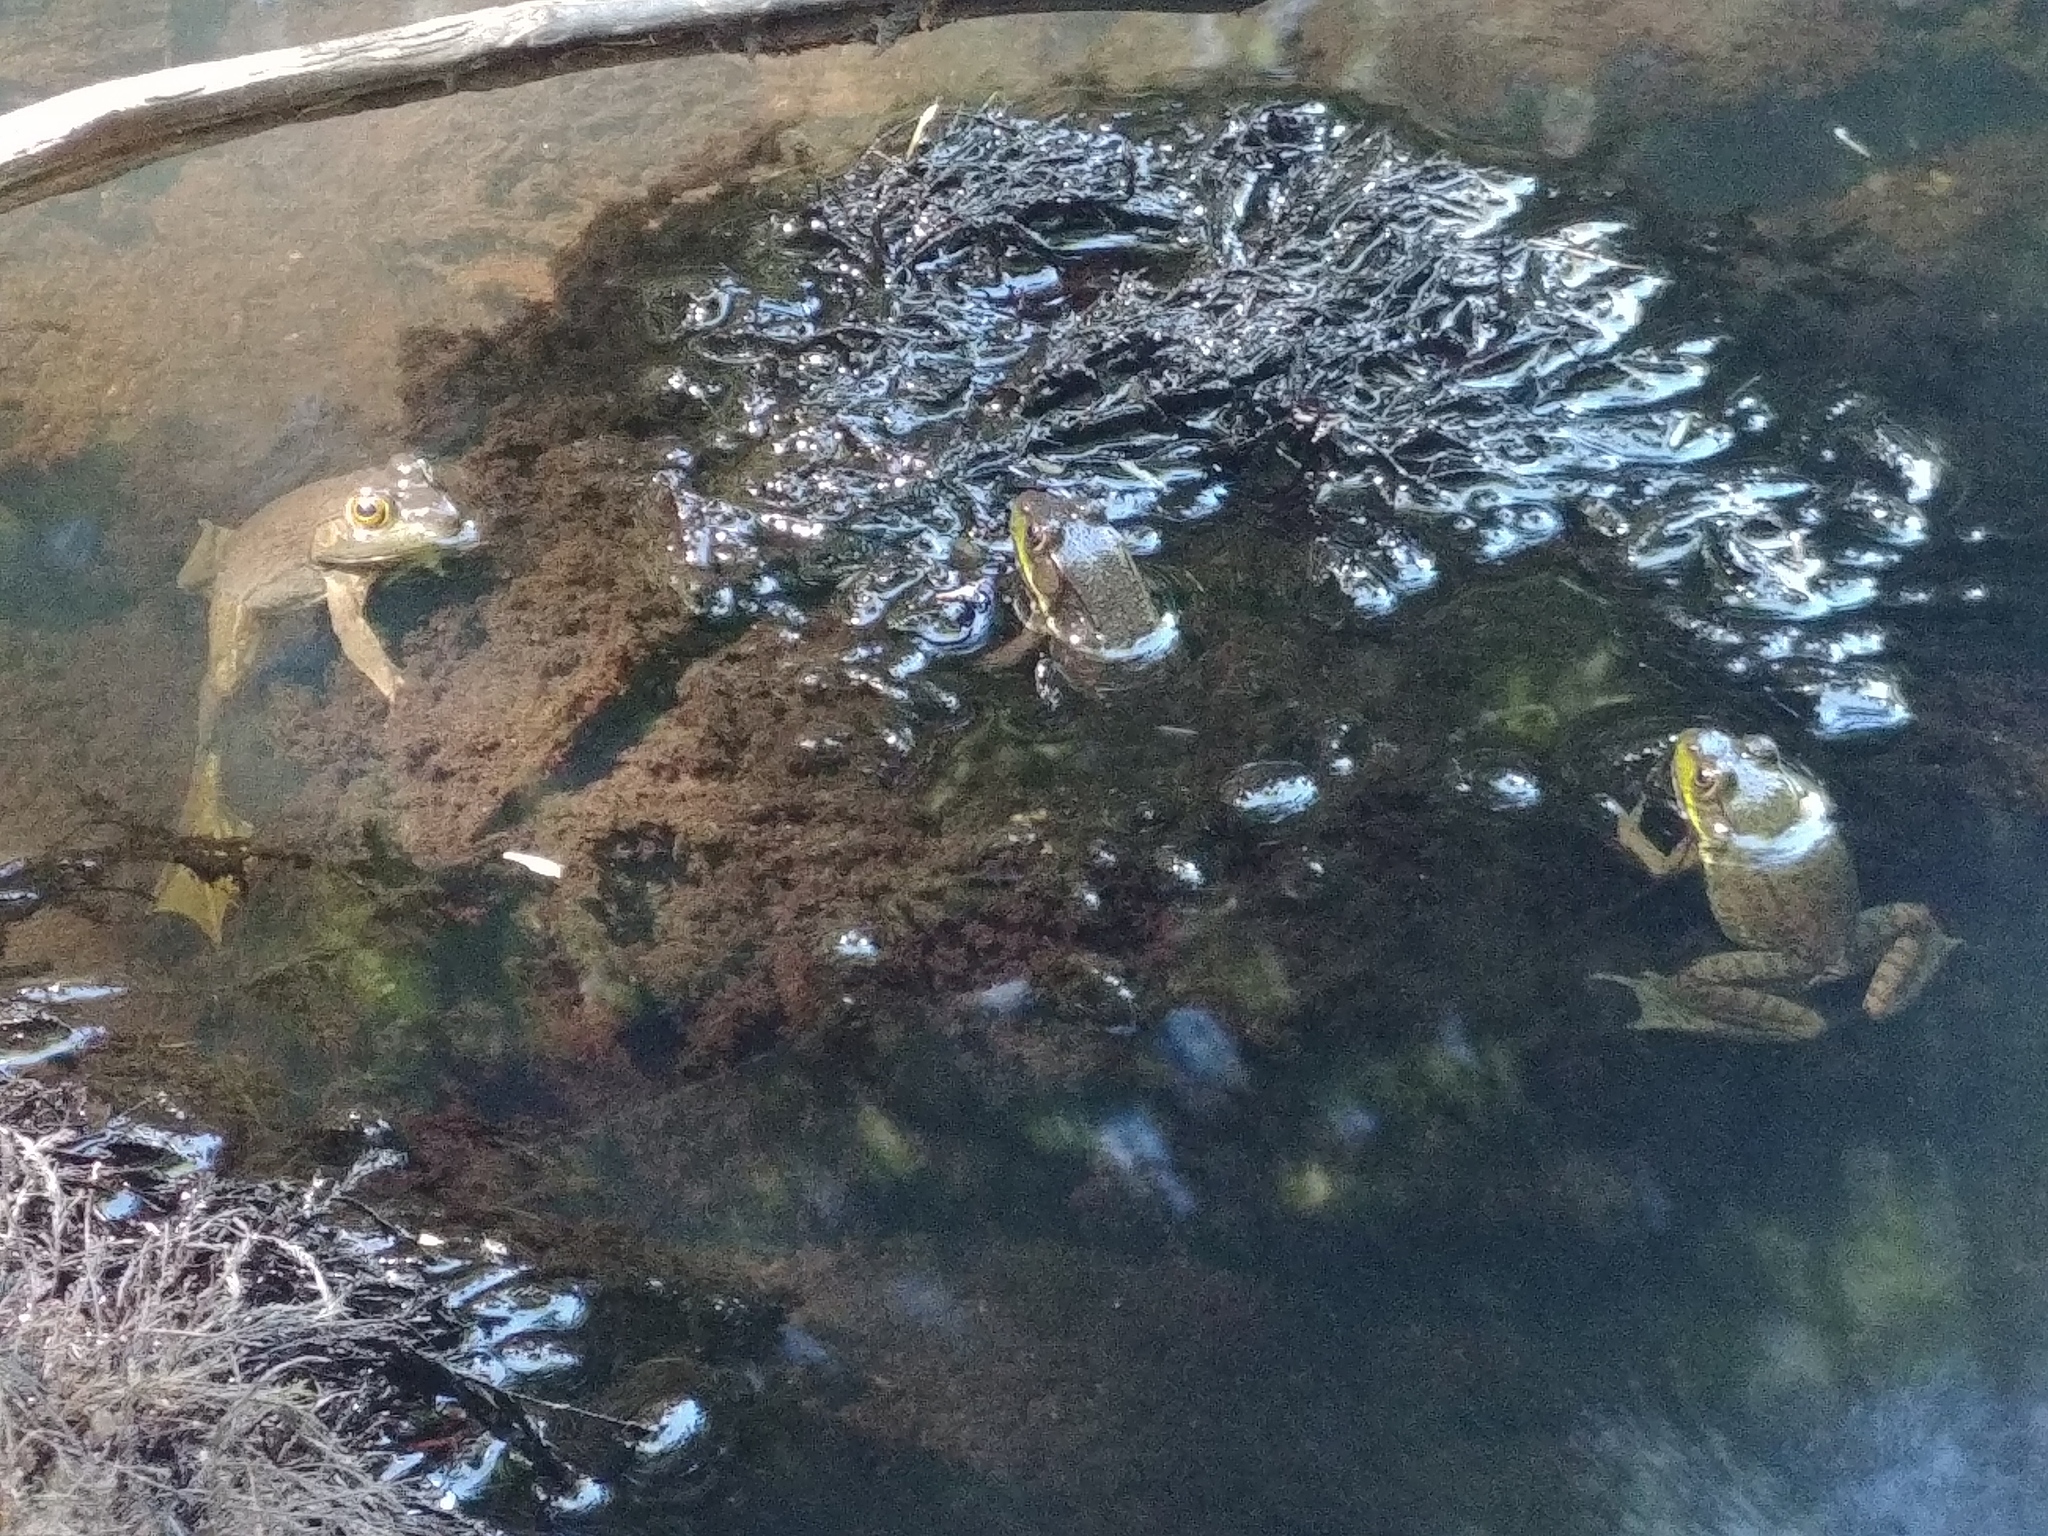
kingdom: Animalia
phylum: Chordata
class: Amphibia
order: Anura
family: Ranidae
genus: Lithobates
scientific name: Lithobates clamitans
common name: Green frog
